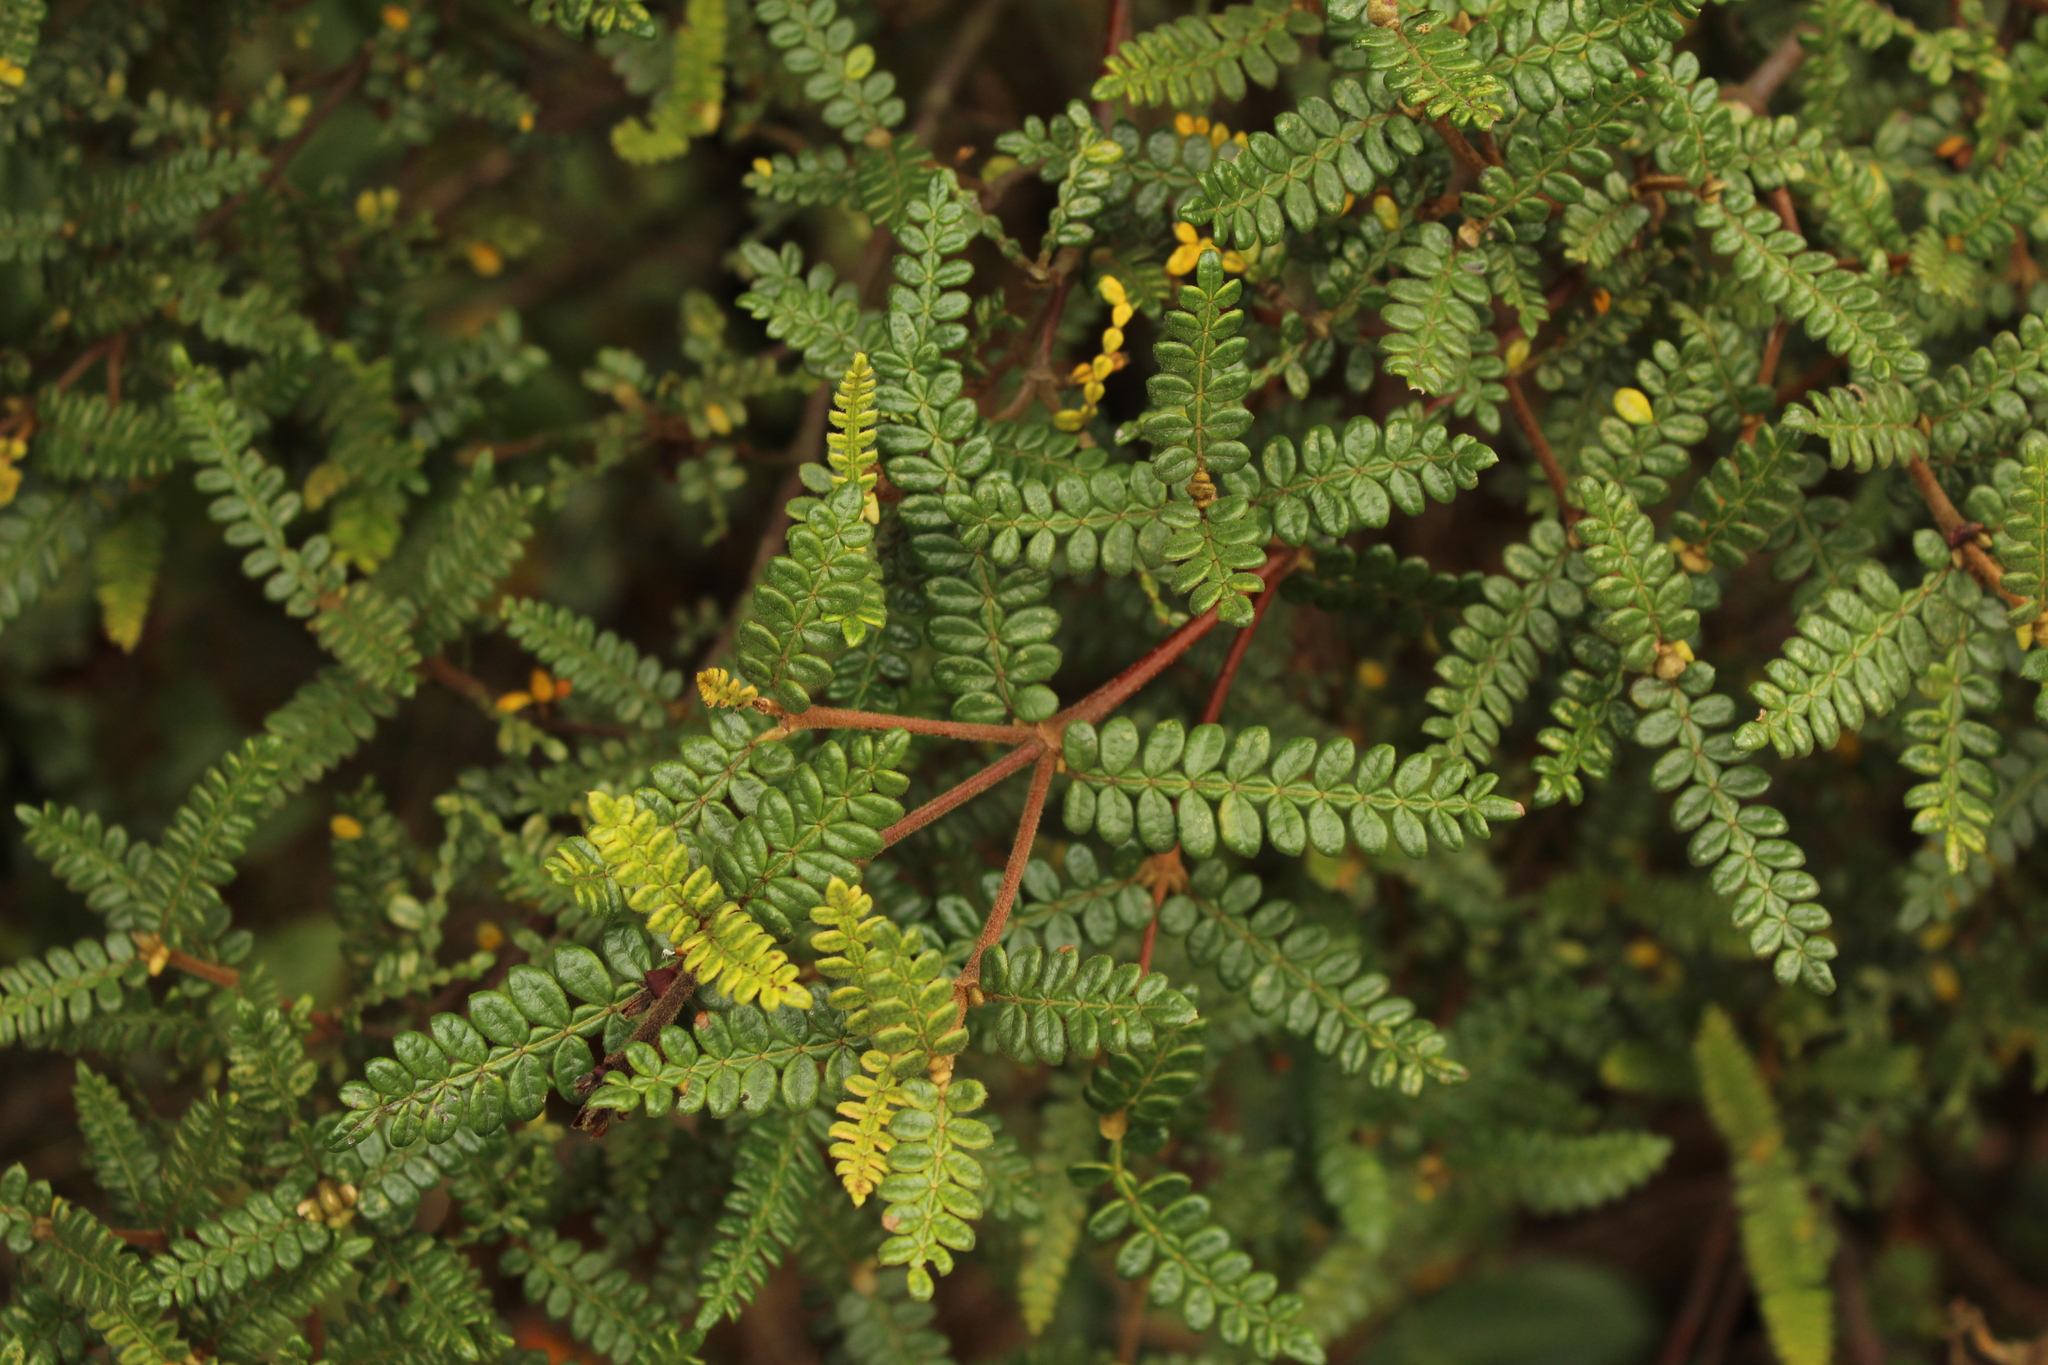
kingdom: Plantae
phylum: Tracheophyta
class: Magnoliopsida
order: Oxalidales
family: Cunoniaceae
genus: Weinmannia
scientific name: Weinmannia tomentosa
